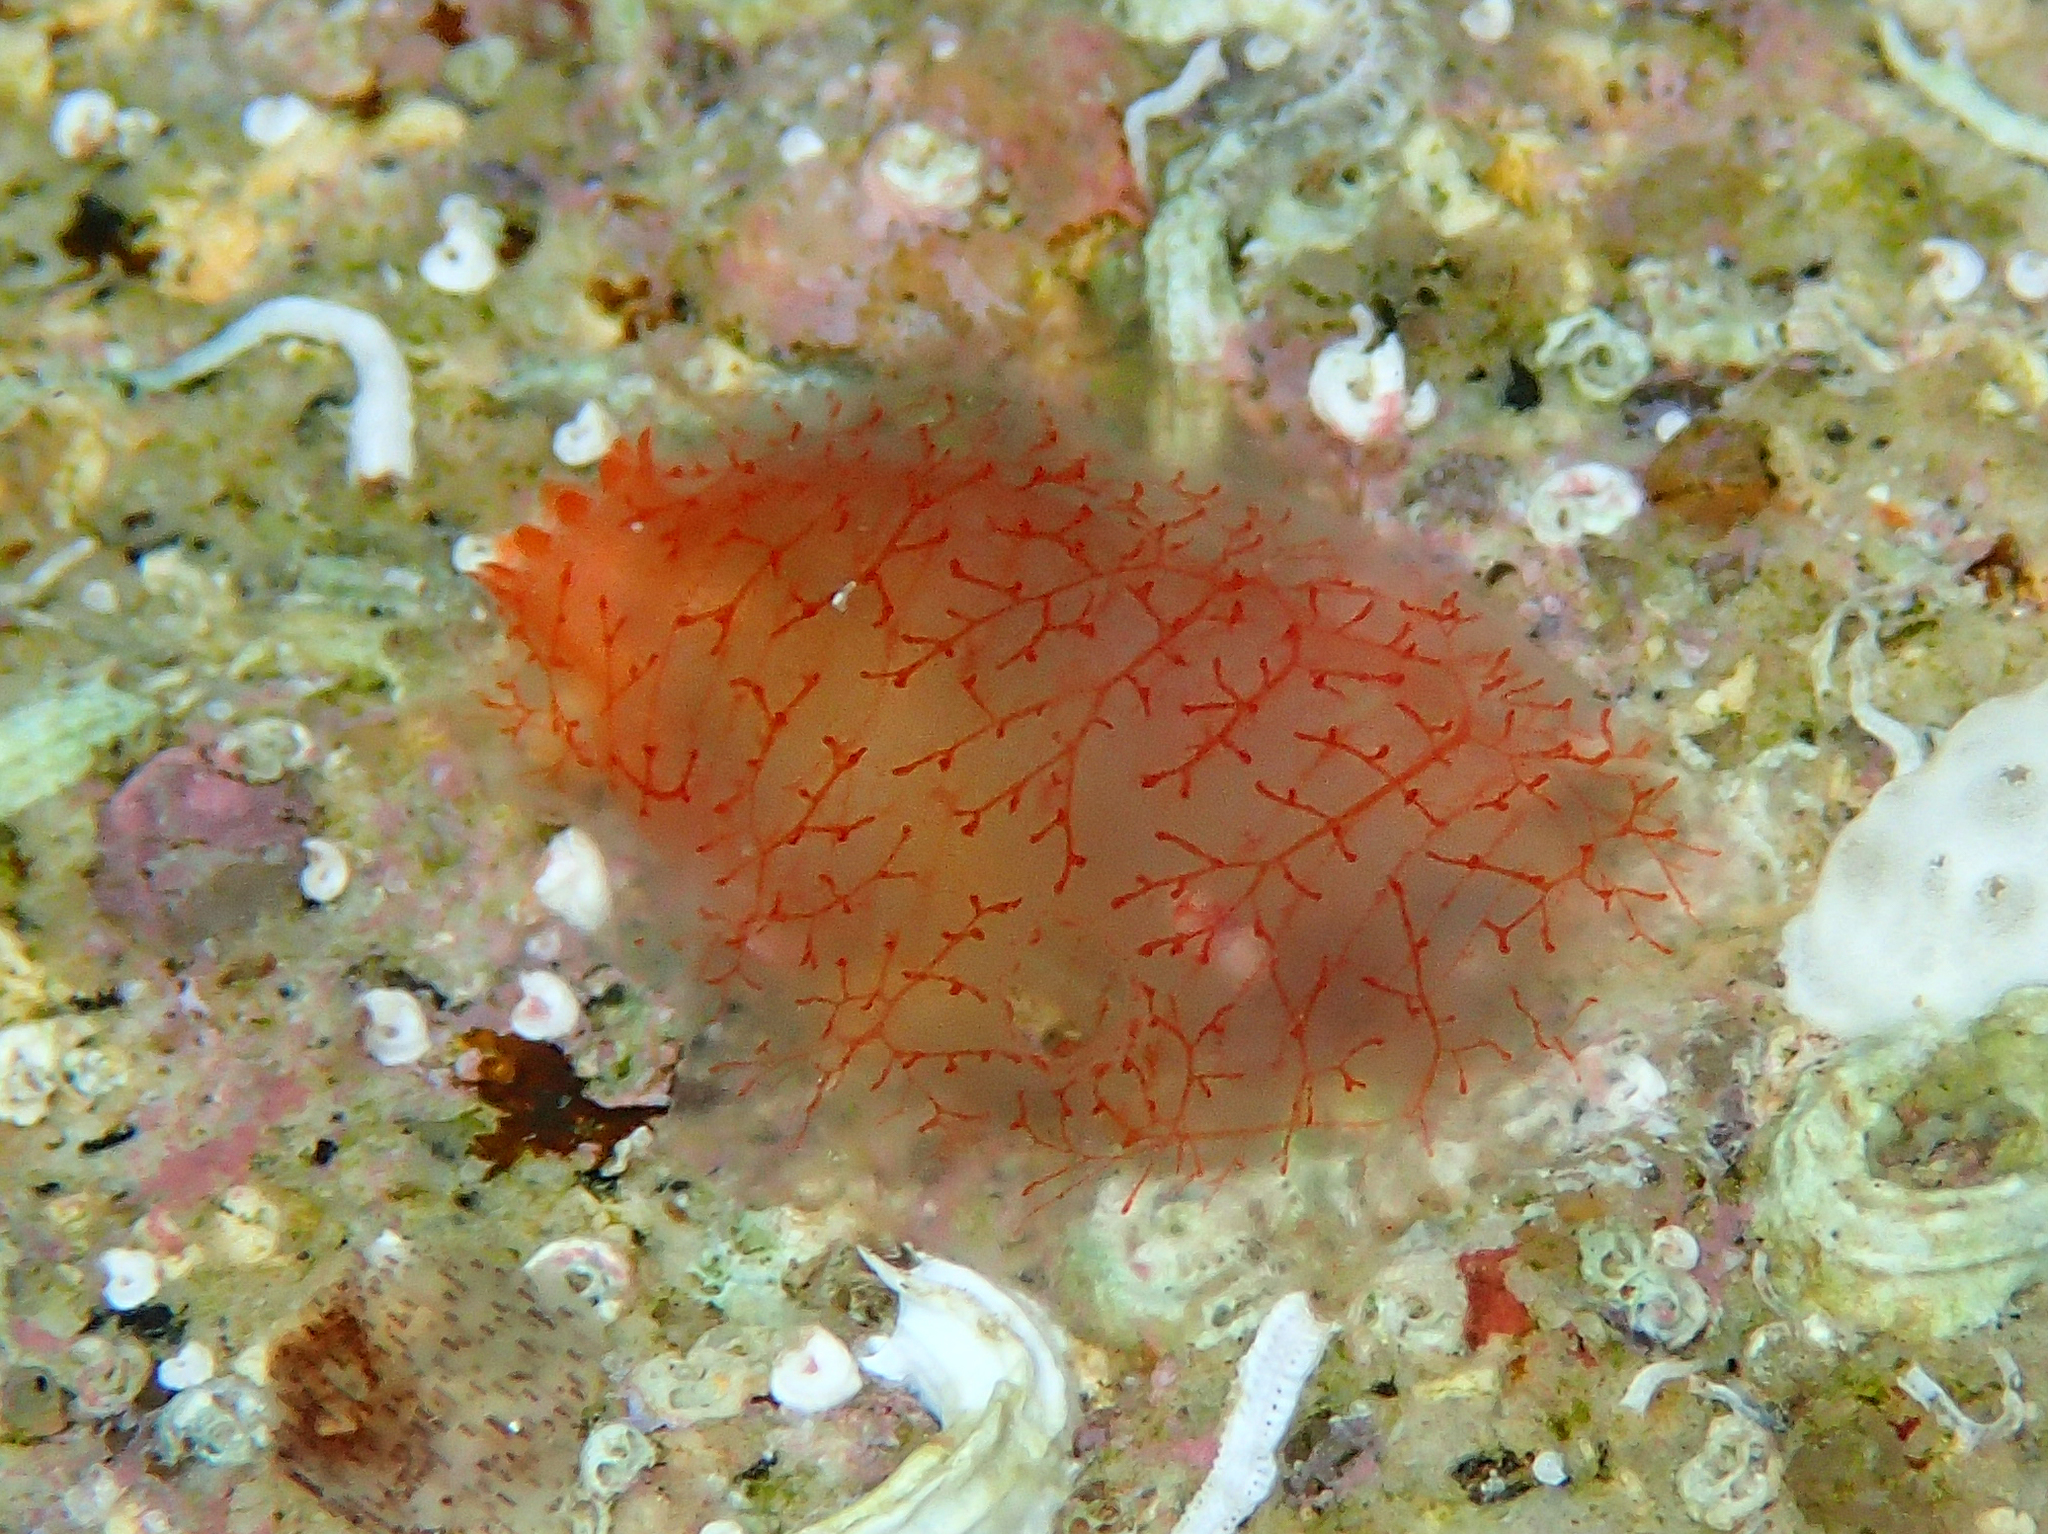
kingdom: Animalia
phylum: Chordata
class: Ascidiacea
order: Phlebobranchia
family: Ascidiidae
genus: Ascidia
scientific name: Ascidia mentula
